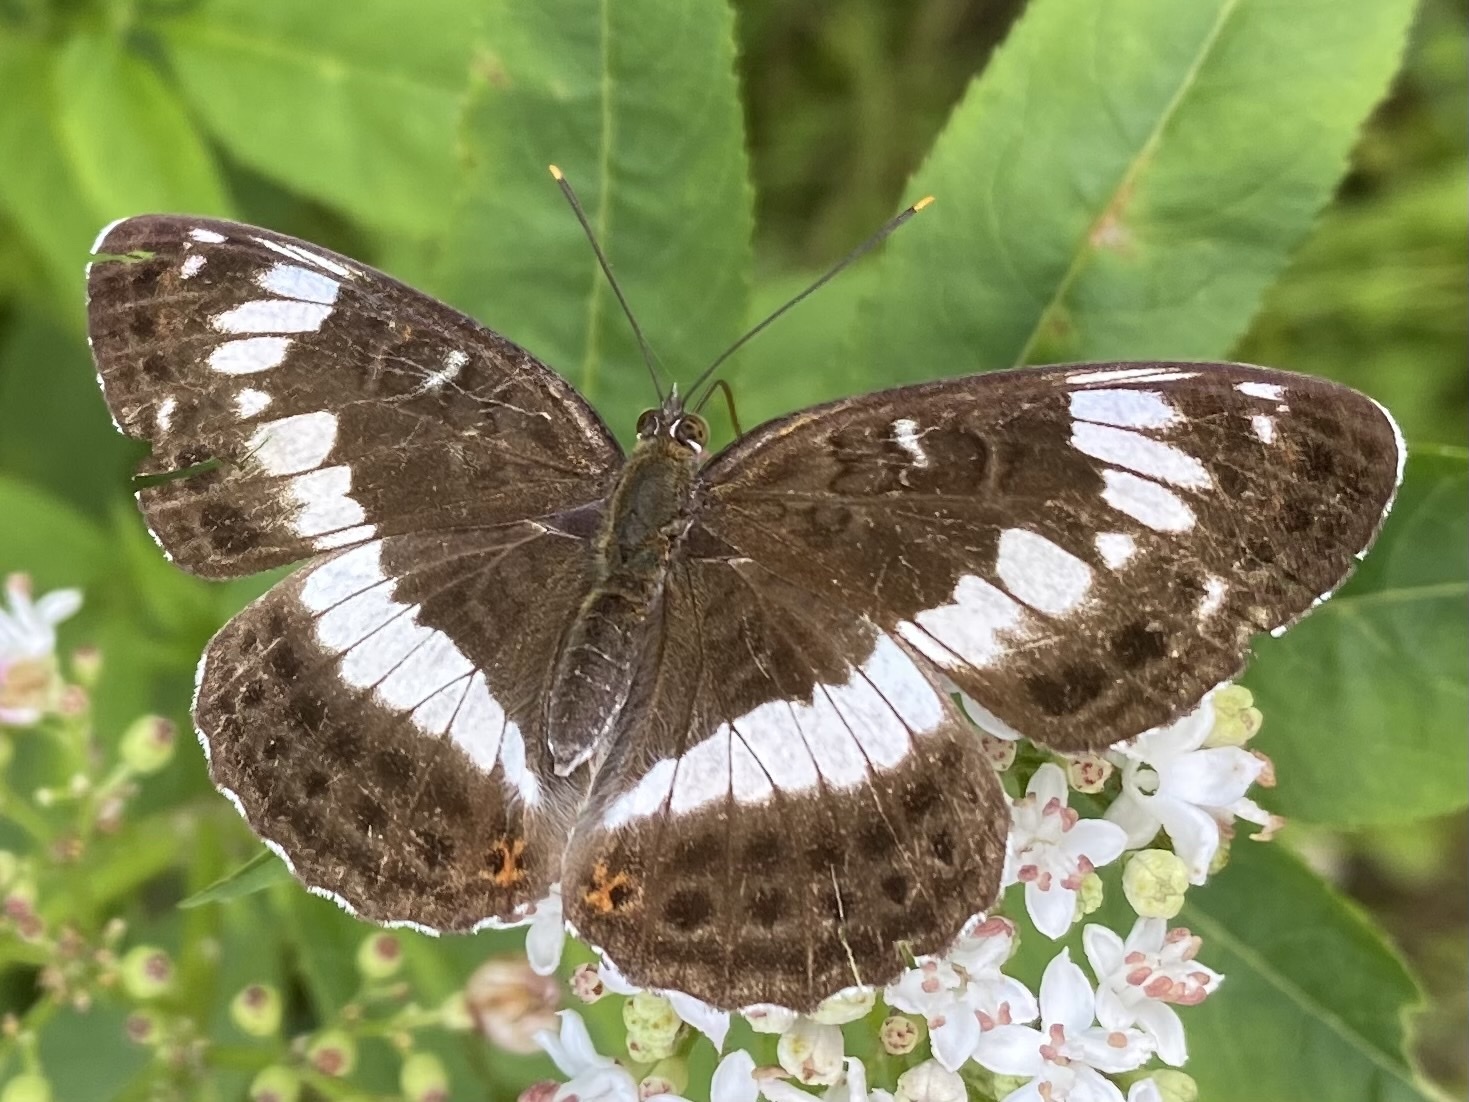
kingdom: Animalia
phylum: Arthropoda
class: Insecta
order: Lepidoptera
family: Nymphalidae
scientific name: Nymphalidae
